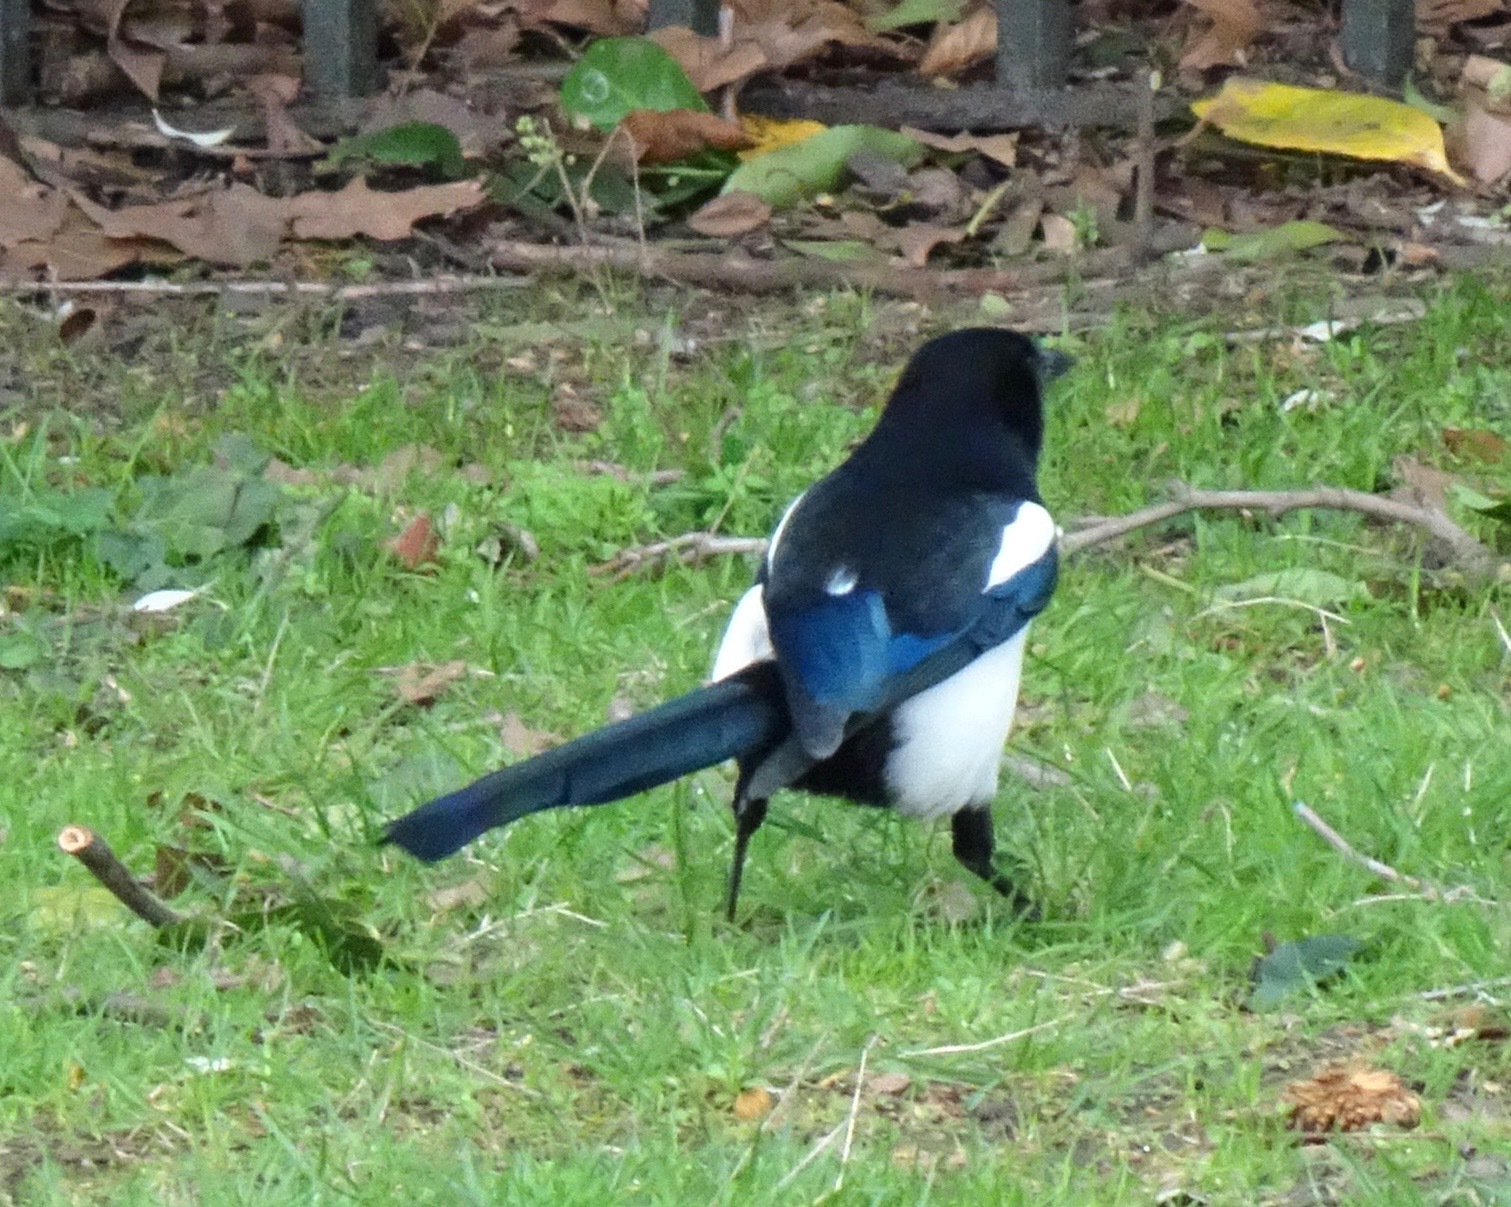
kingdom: Animalia
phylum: Chordata
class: Aves
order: Passeriformes
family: Corvidae
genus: Pica
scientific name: Pica pica
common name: Eurasian magpie
